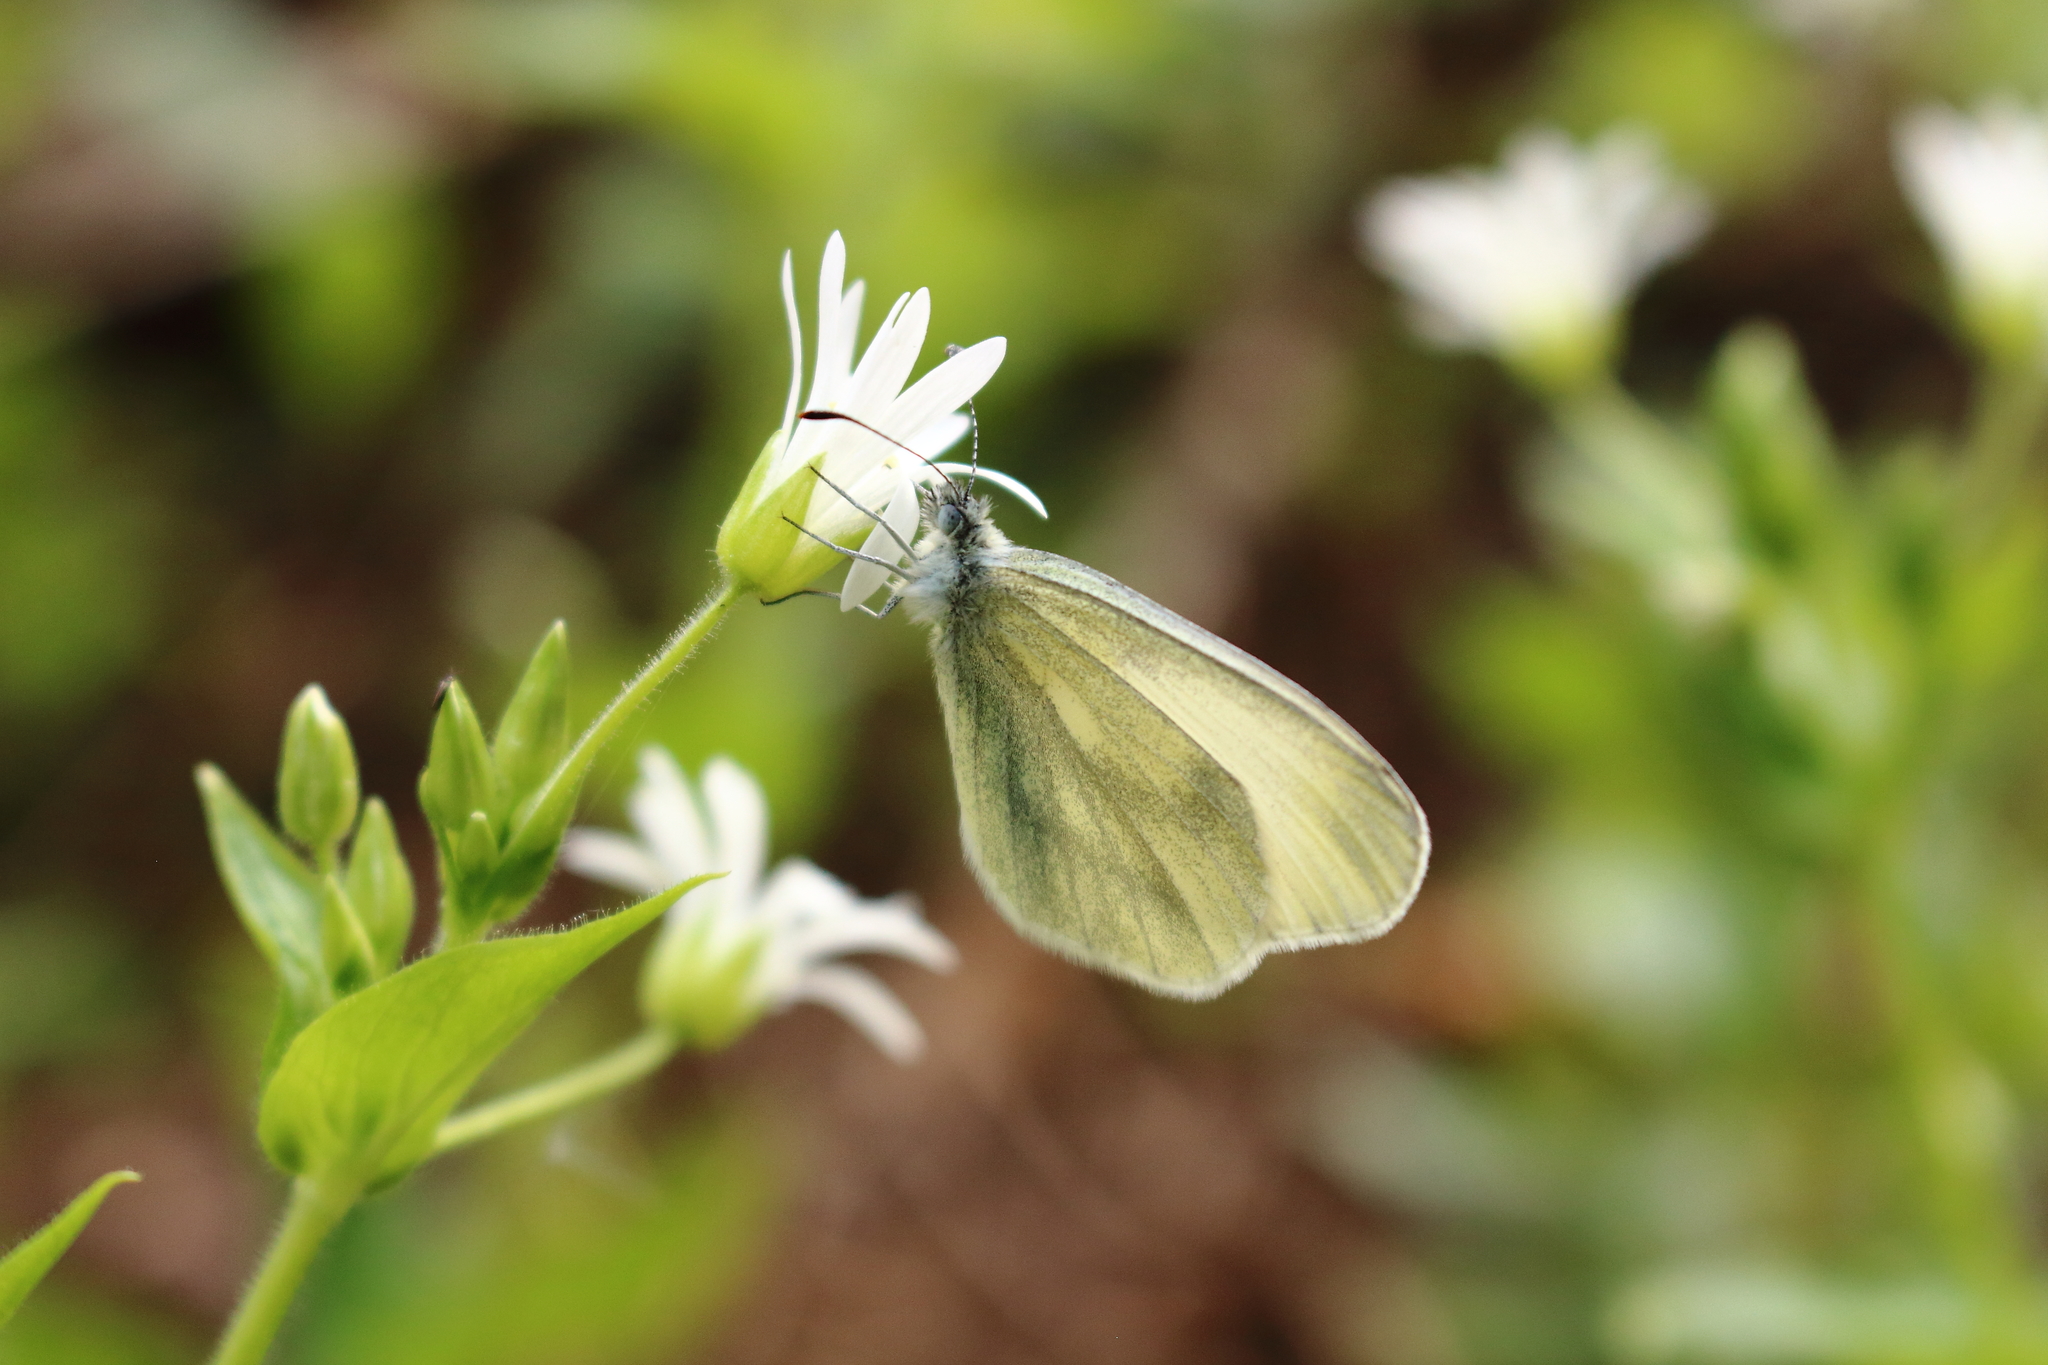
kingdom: Animalia
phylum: Arthropoda
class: Insecta
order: Lepidoptera
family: Pieridae
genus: Leptidea
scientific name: Leptidea
